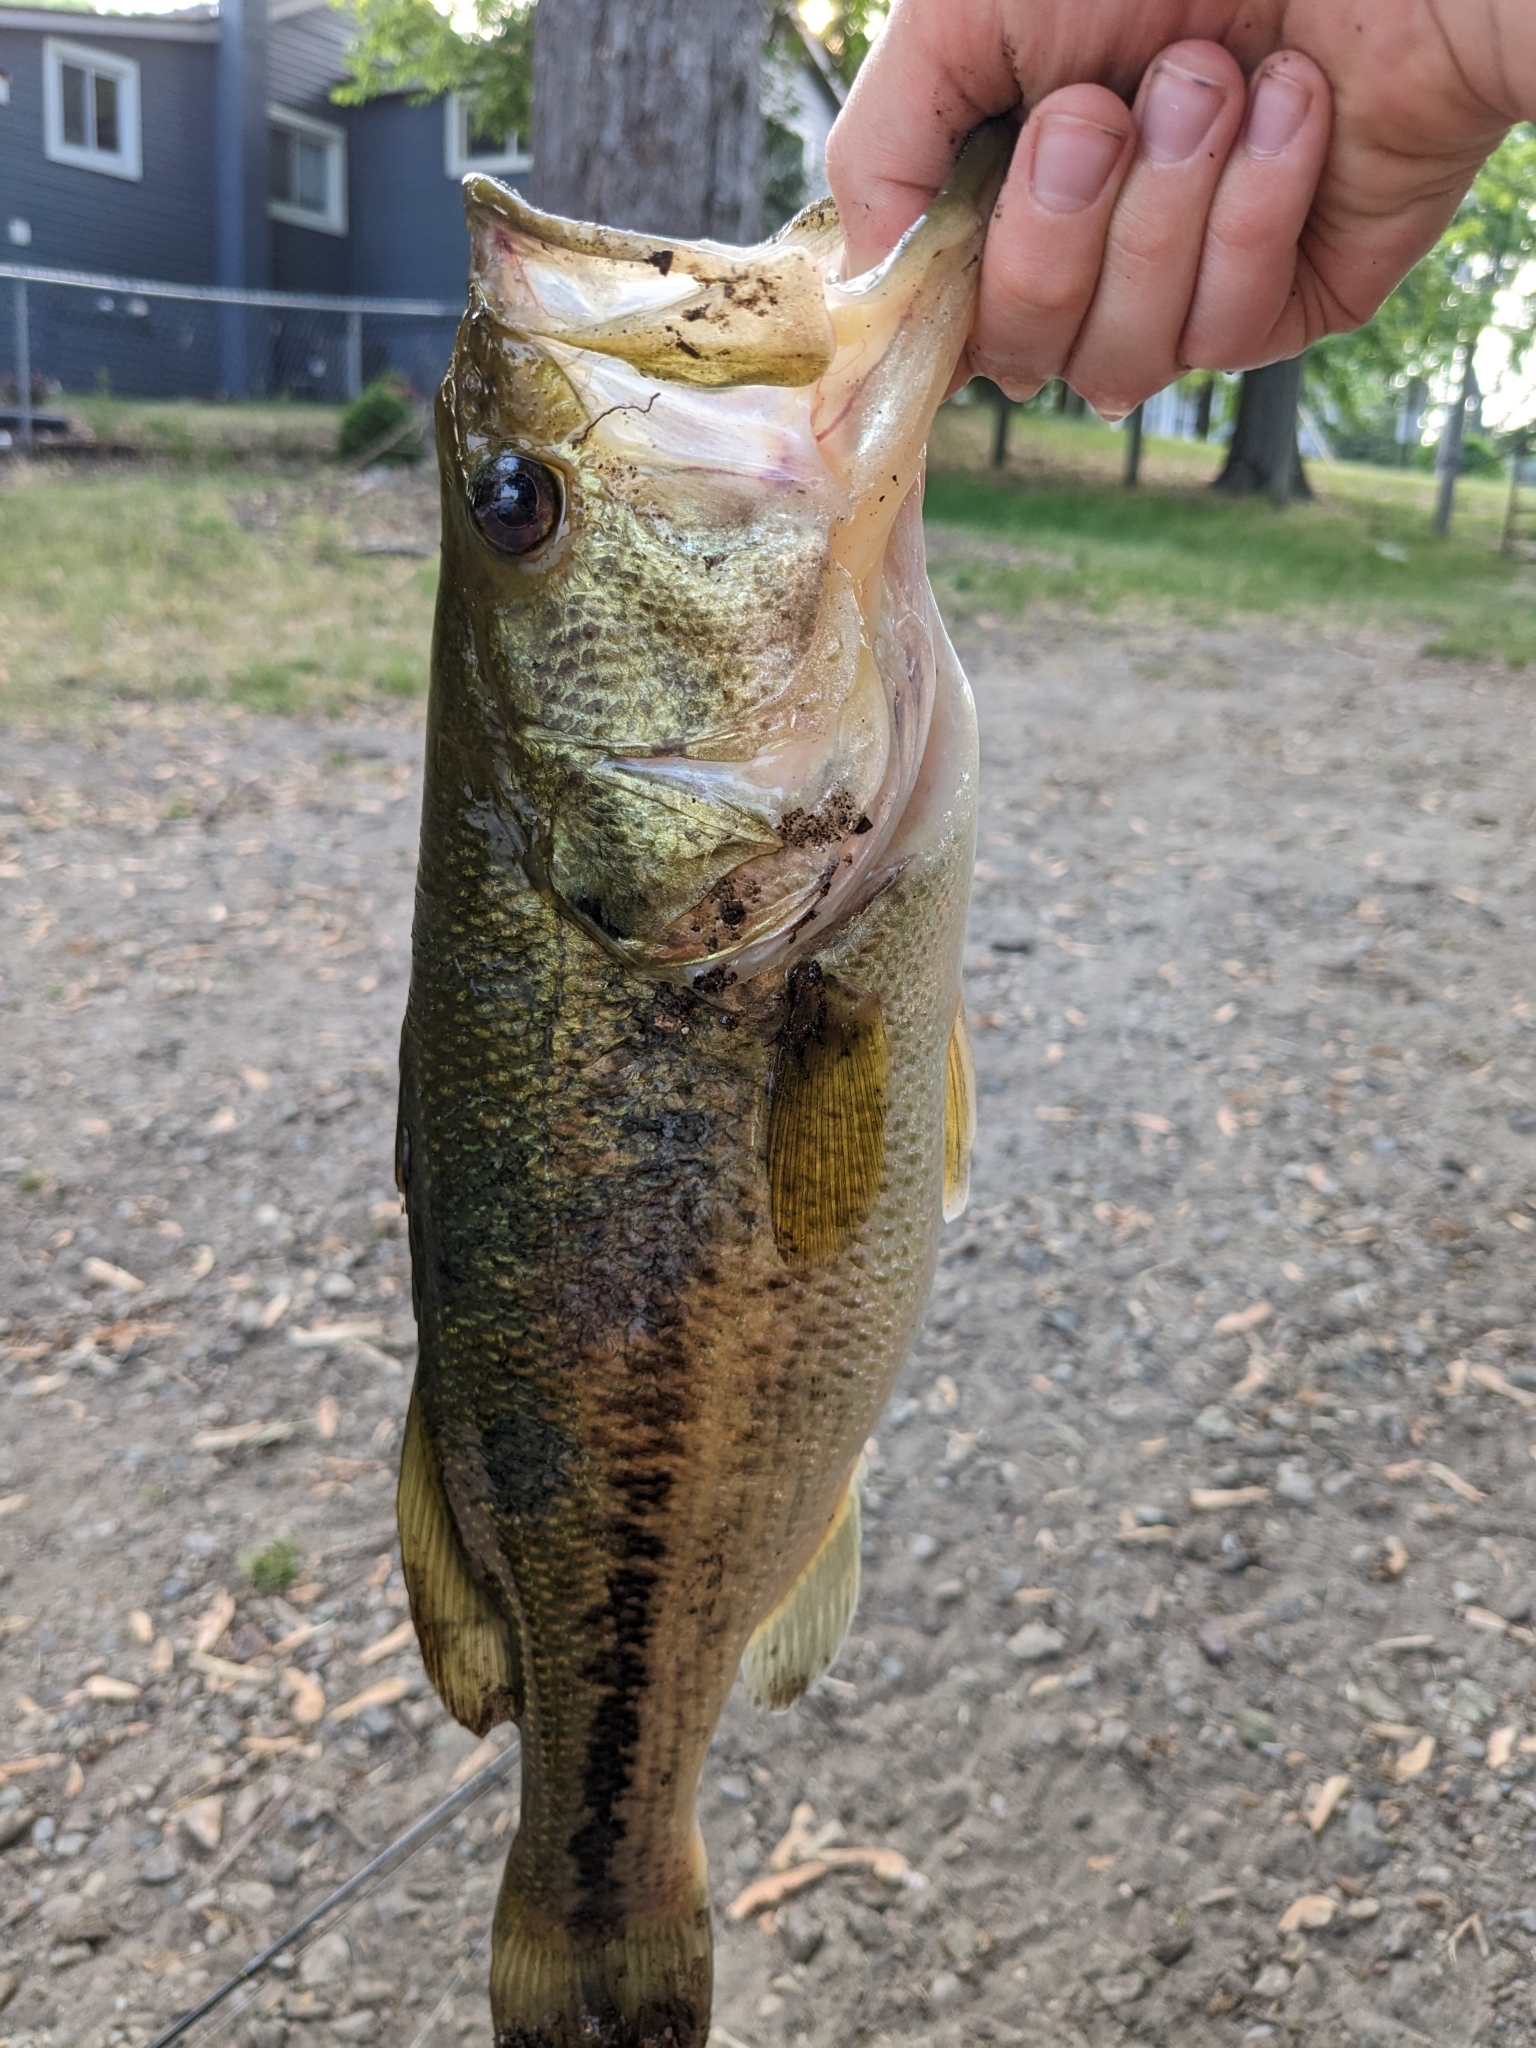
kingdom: Animalia
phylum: Chordata
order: Perciformes
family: Centrarchidae
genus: Micropterus
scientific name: Micropterus
